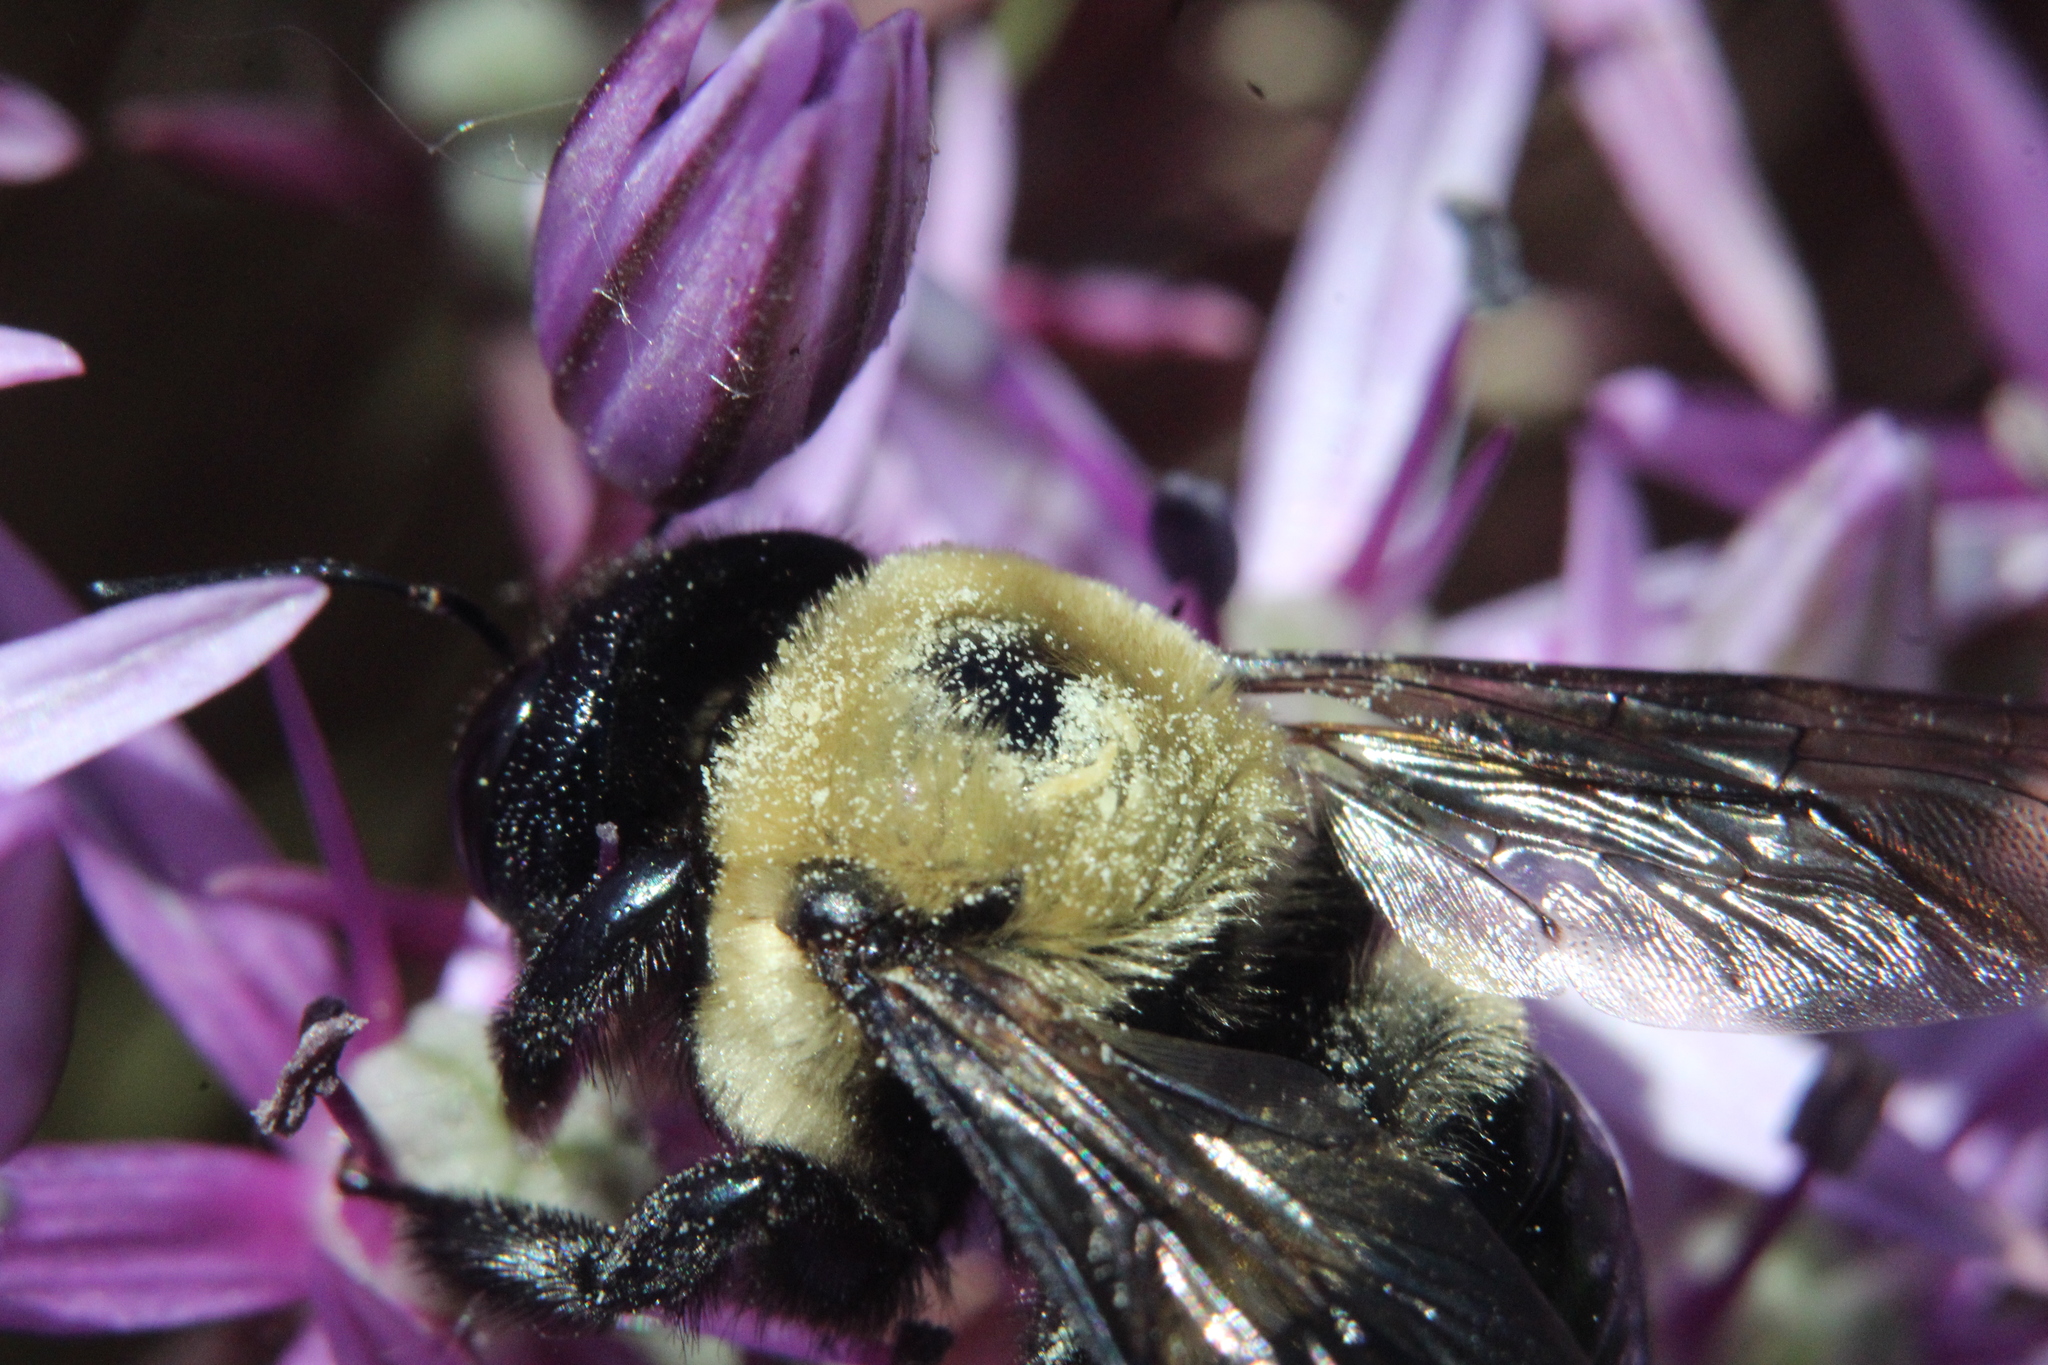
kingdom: Animalia
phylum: Arthropoda
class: Insecta
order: Hymenoptera
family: Apidae
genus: Xylocopa
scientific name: Xylocopa virginica
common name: Carpenter bee
